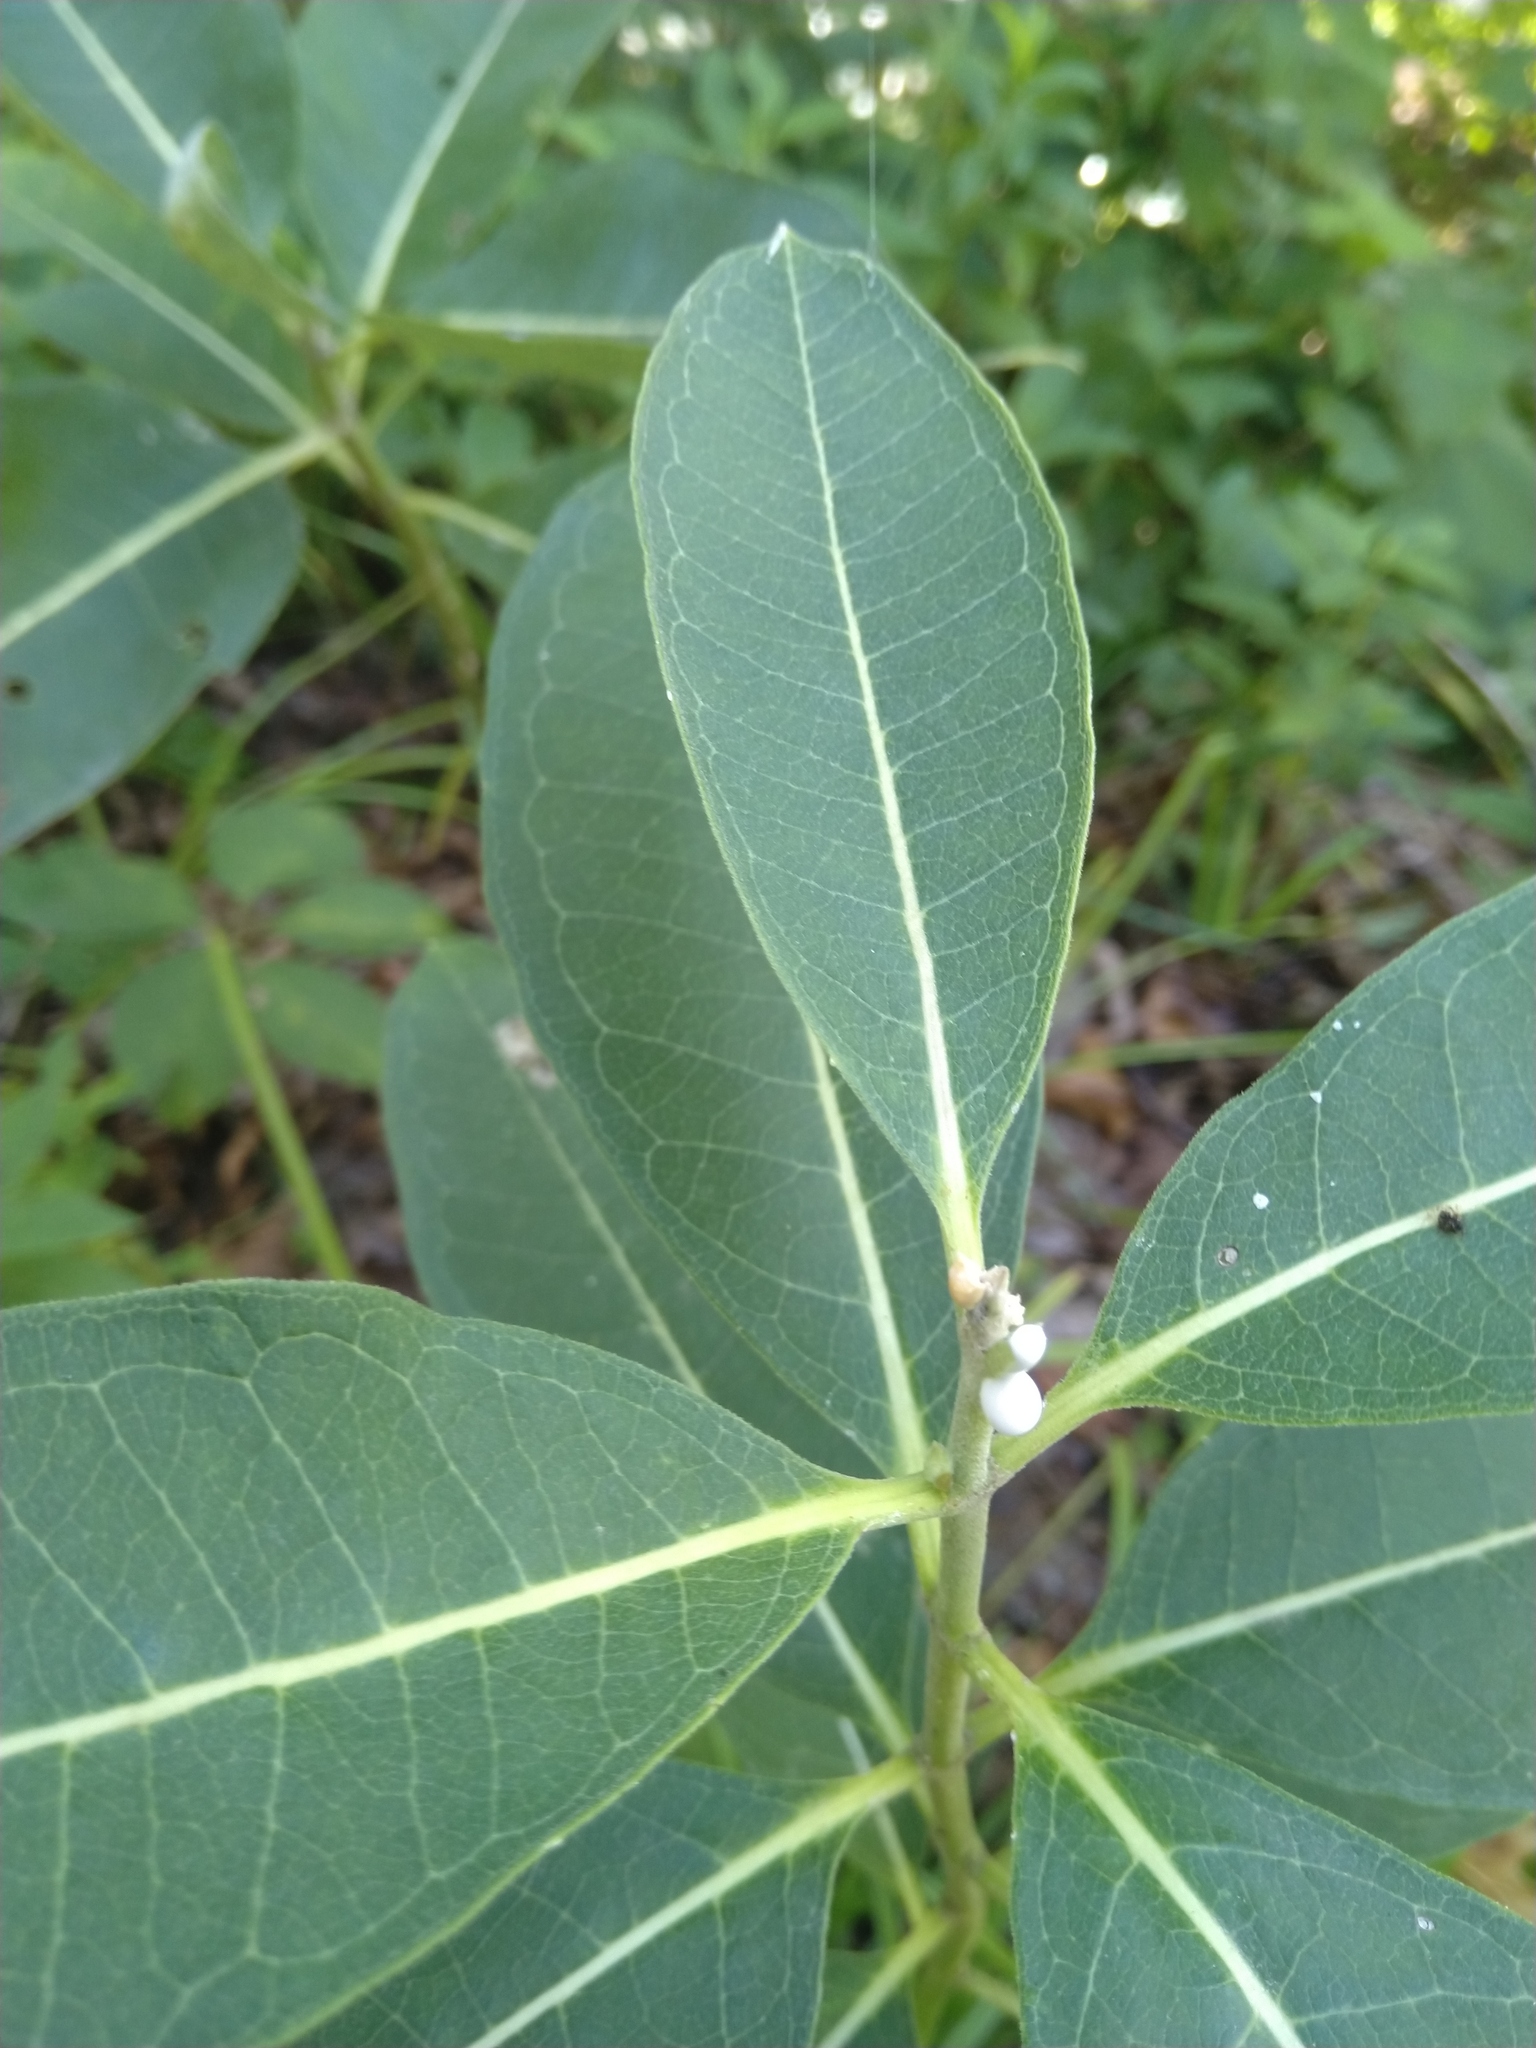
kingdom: Plantae
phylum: Tracheophyta
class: Magnoliopsida
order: Gentianales
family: Apocynaceae
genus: Asclepias
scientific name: Asclepias syriaca
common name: Common milkweed
